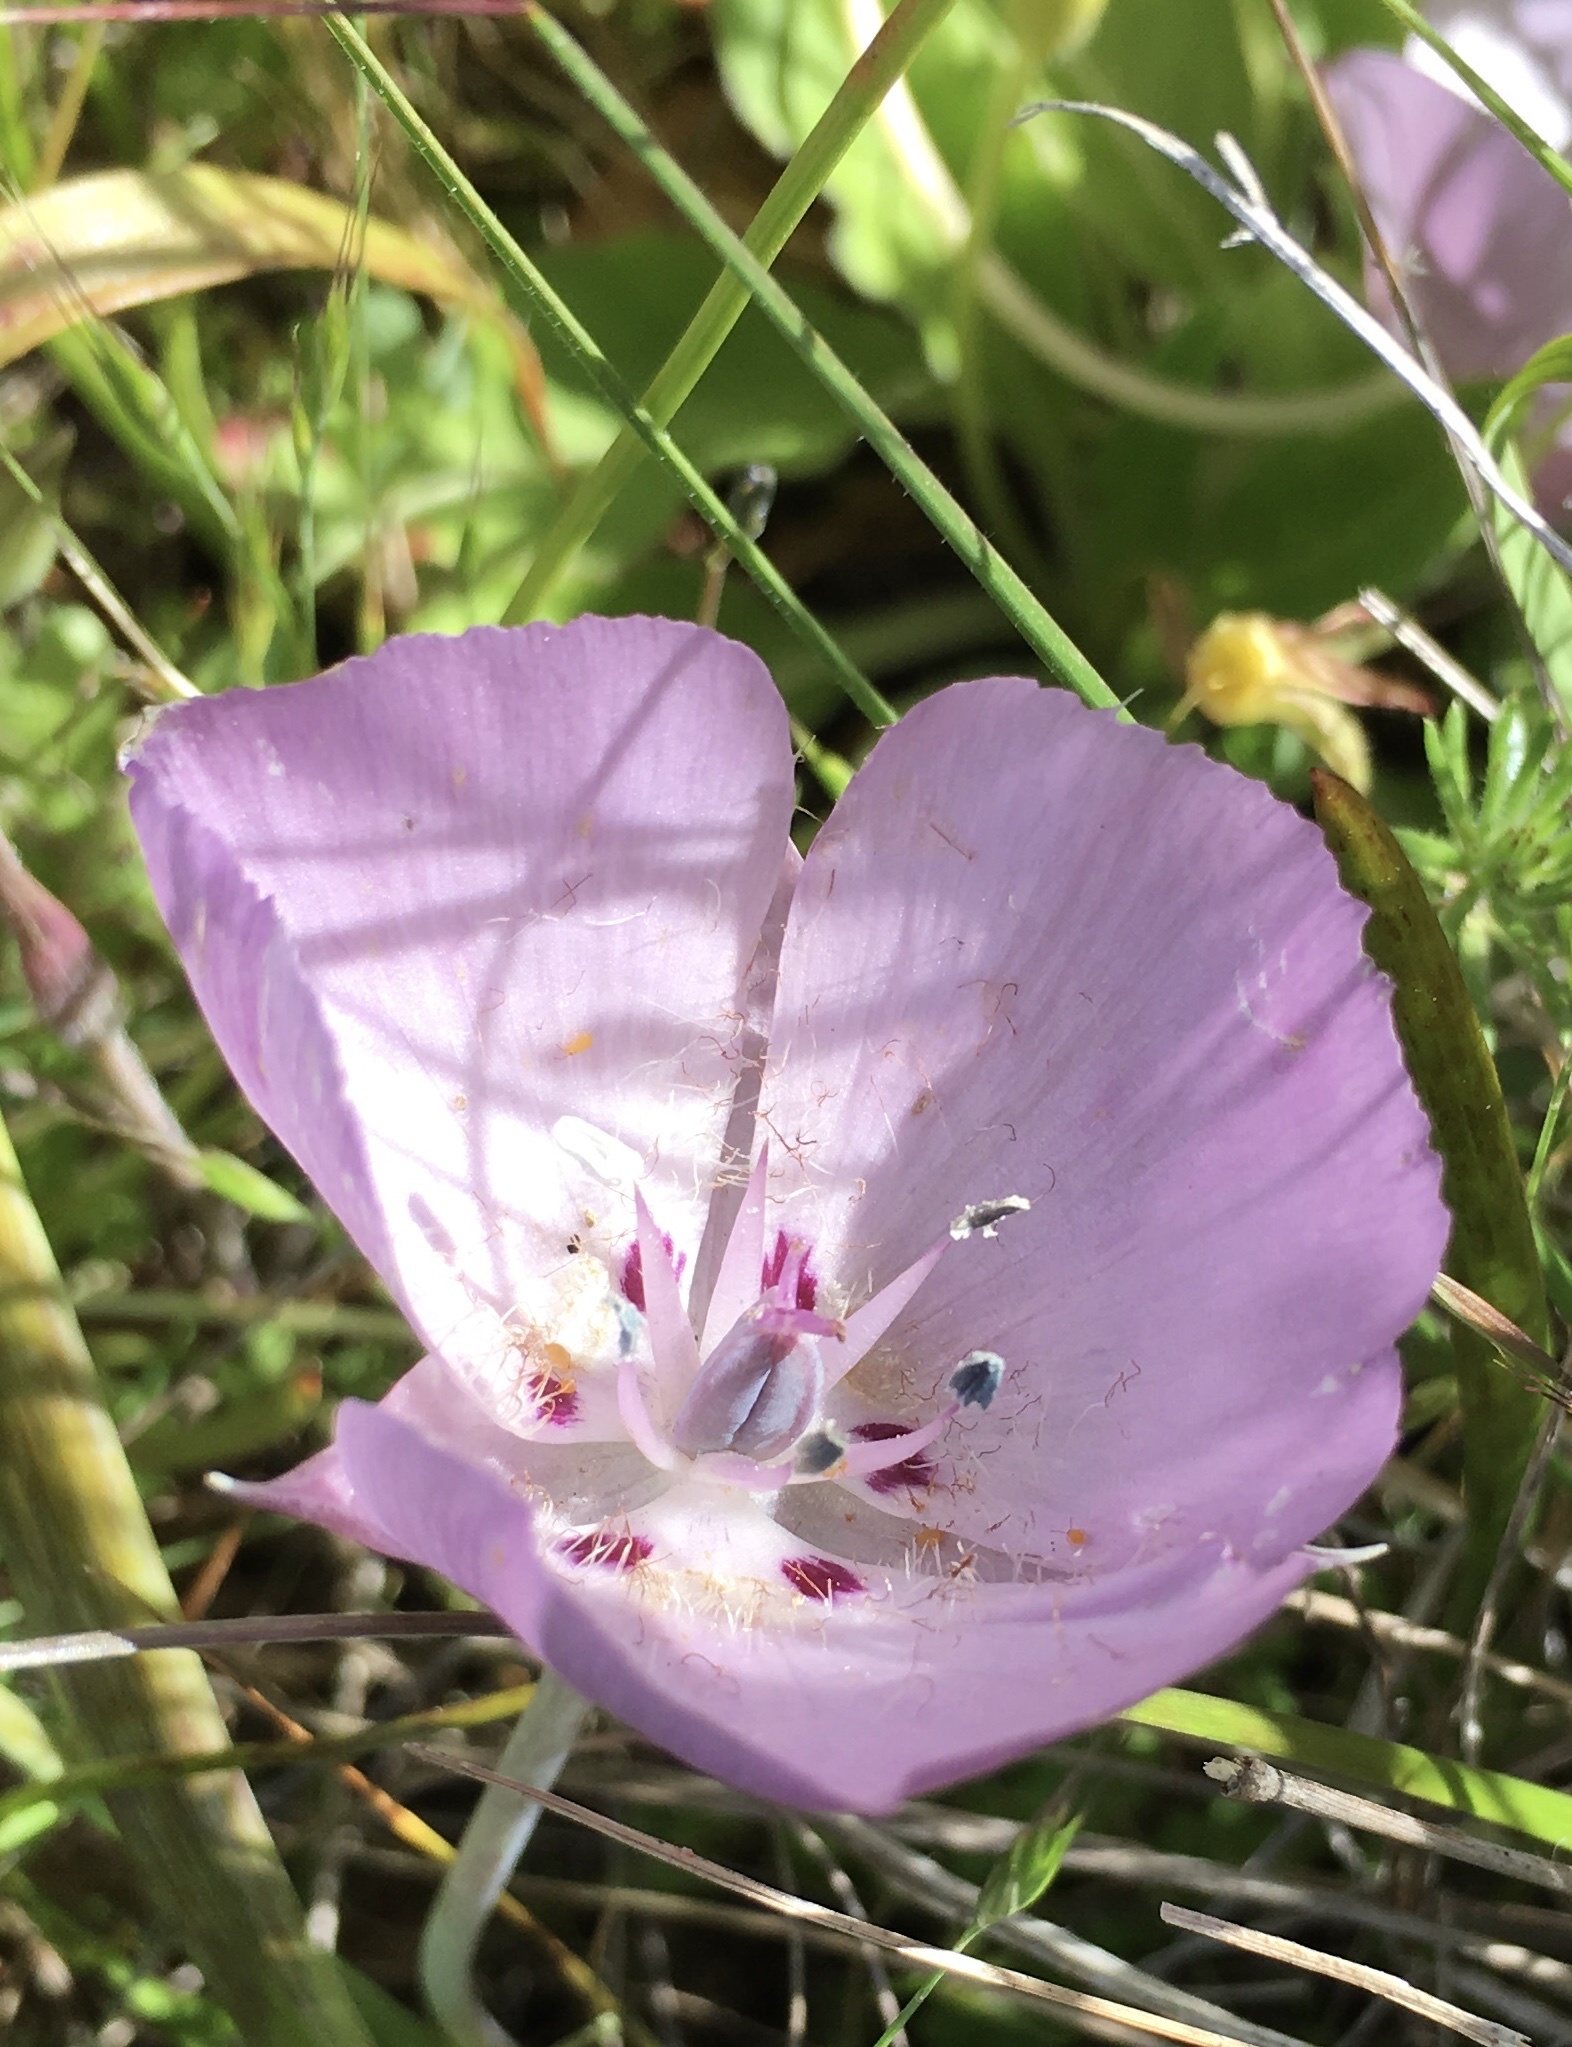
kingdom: Plantae
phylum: Tracheophyta
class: Liliopsida
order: Liliales
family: Liliaceae
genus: Calochortus
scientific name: Calochortus uniflorus
